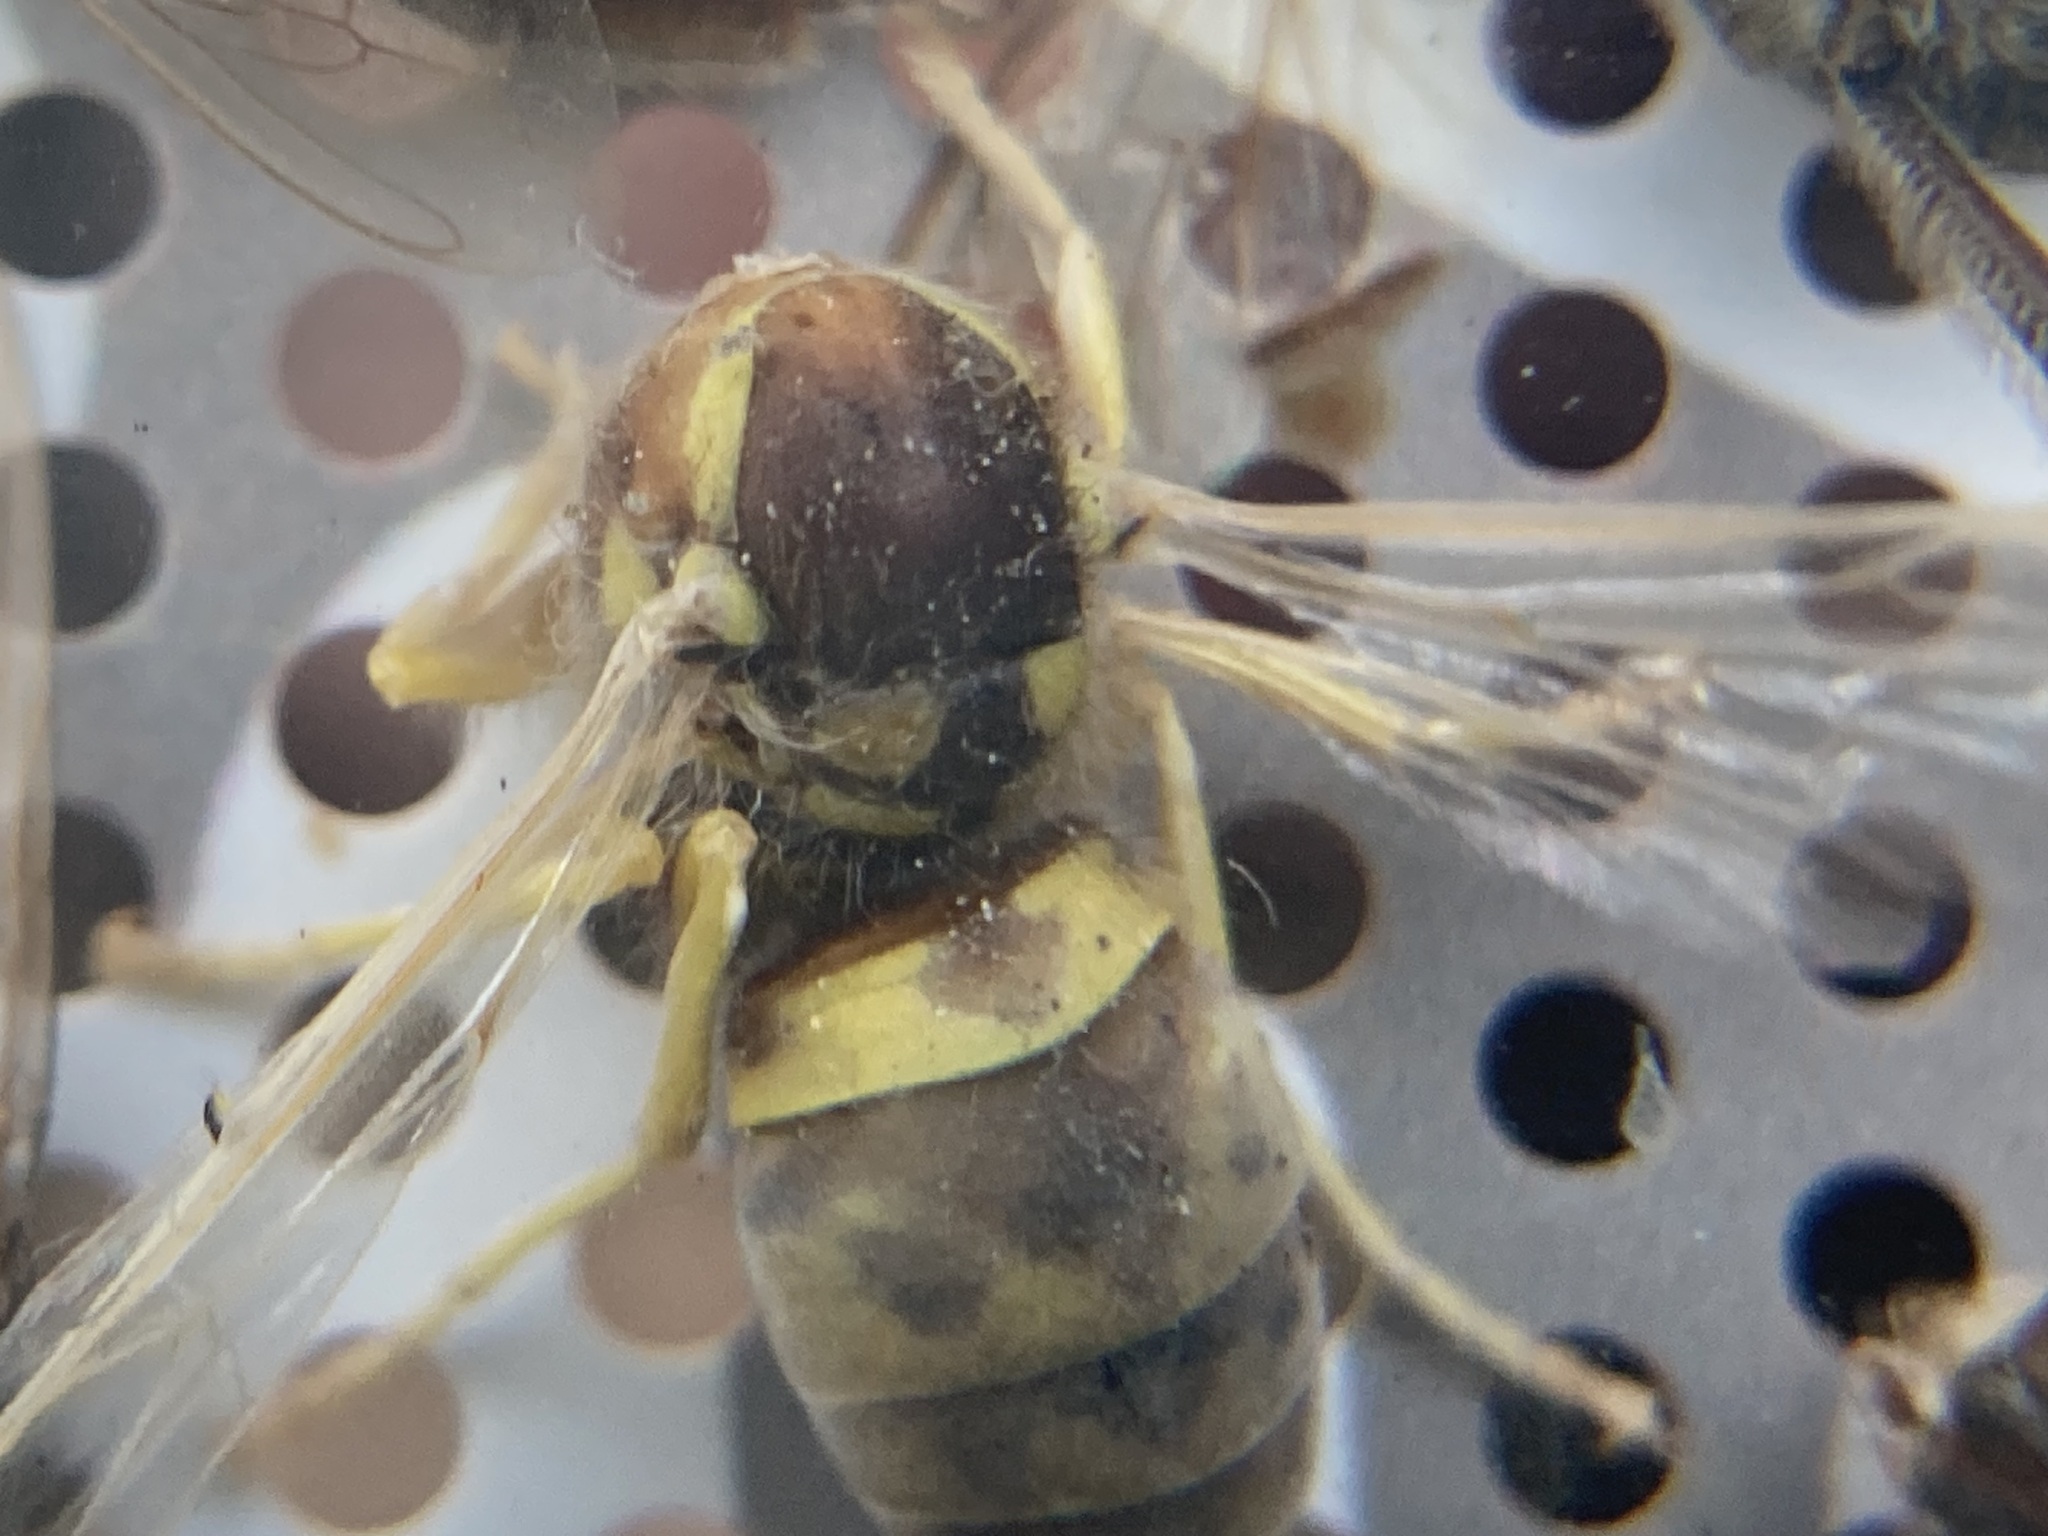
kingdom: Animalia
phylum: Arthropoda
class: Insecta
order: Hymenoptera
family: Vespidae
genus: Vespula
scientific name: Vespula germanica
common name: German wasp
